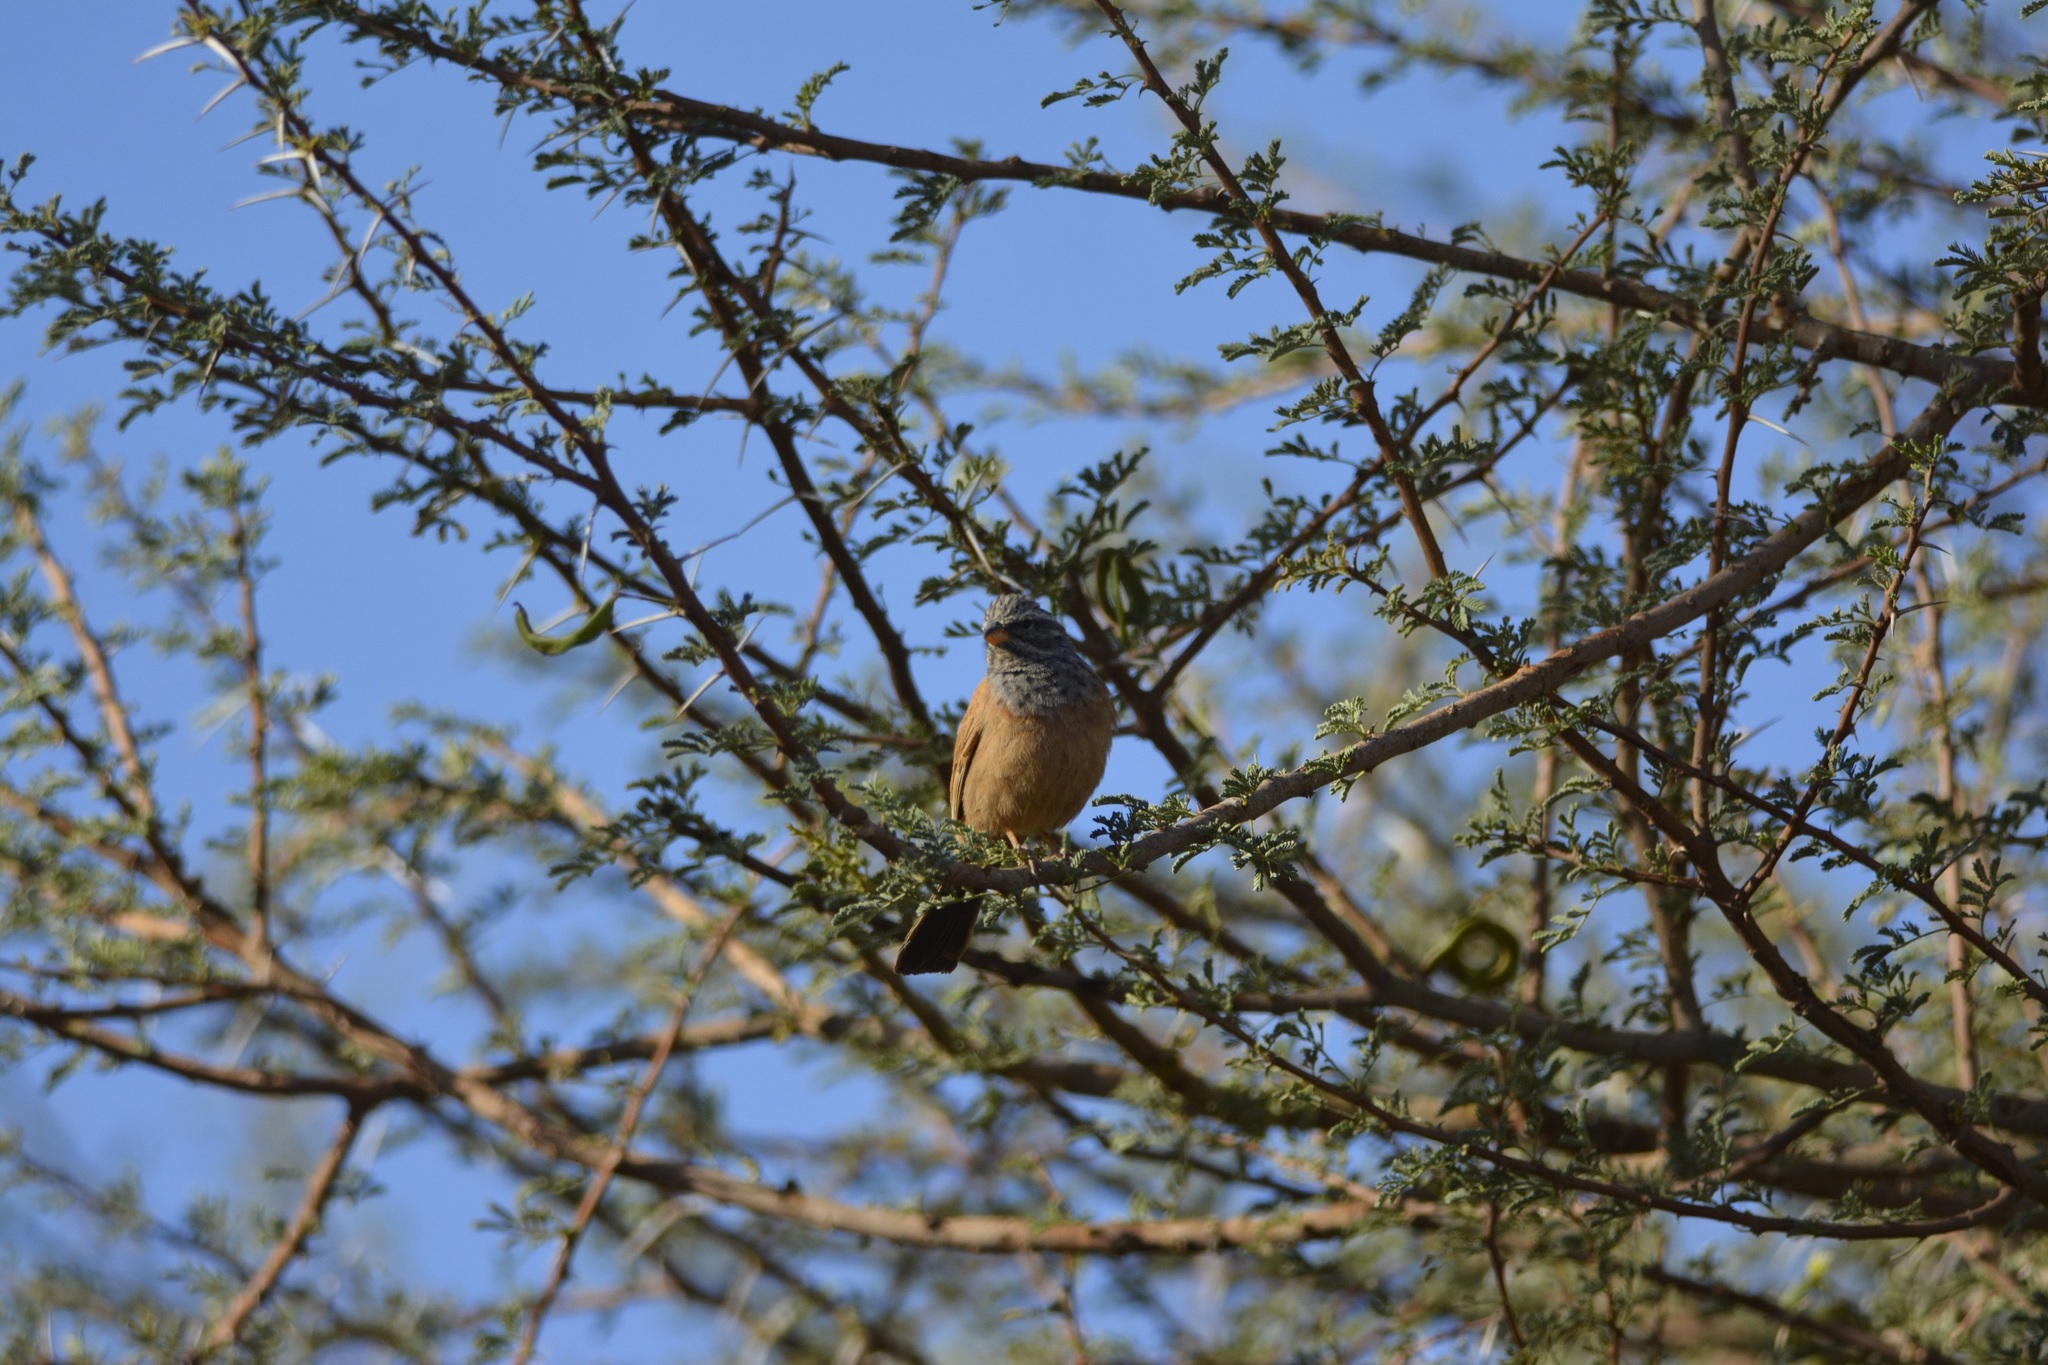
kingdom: Animalia
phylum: Chordata
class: Aves
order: Passeriformes
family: Emberizidae
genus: Emberiza
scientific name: Emberiza sahari
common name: House bunting
